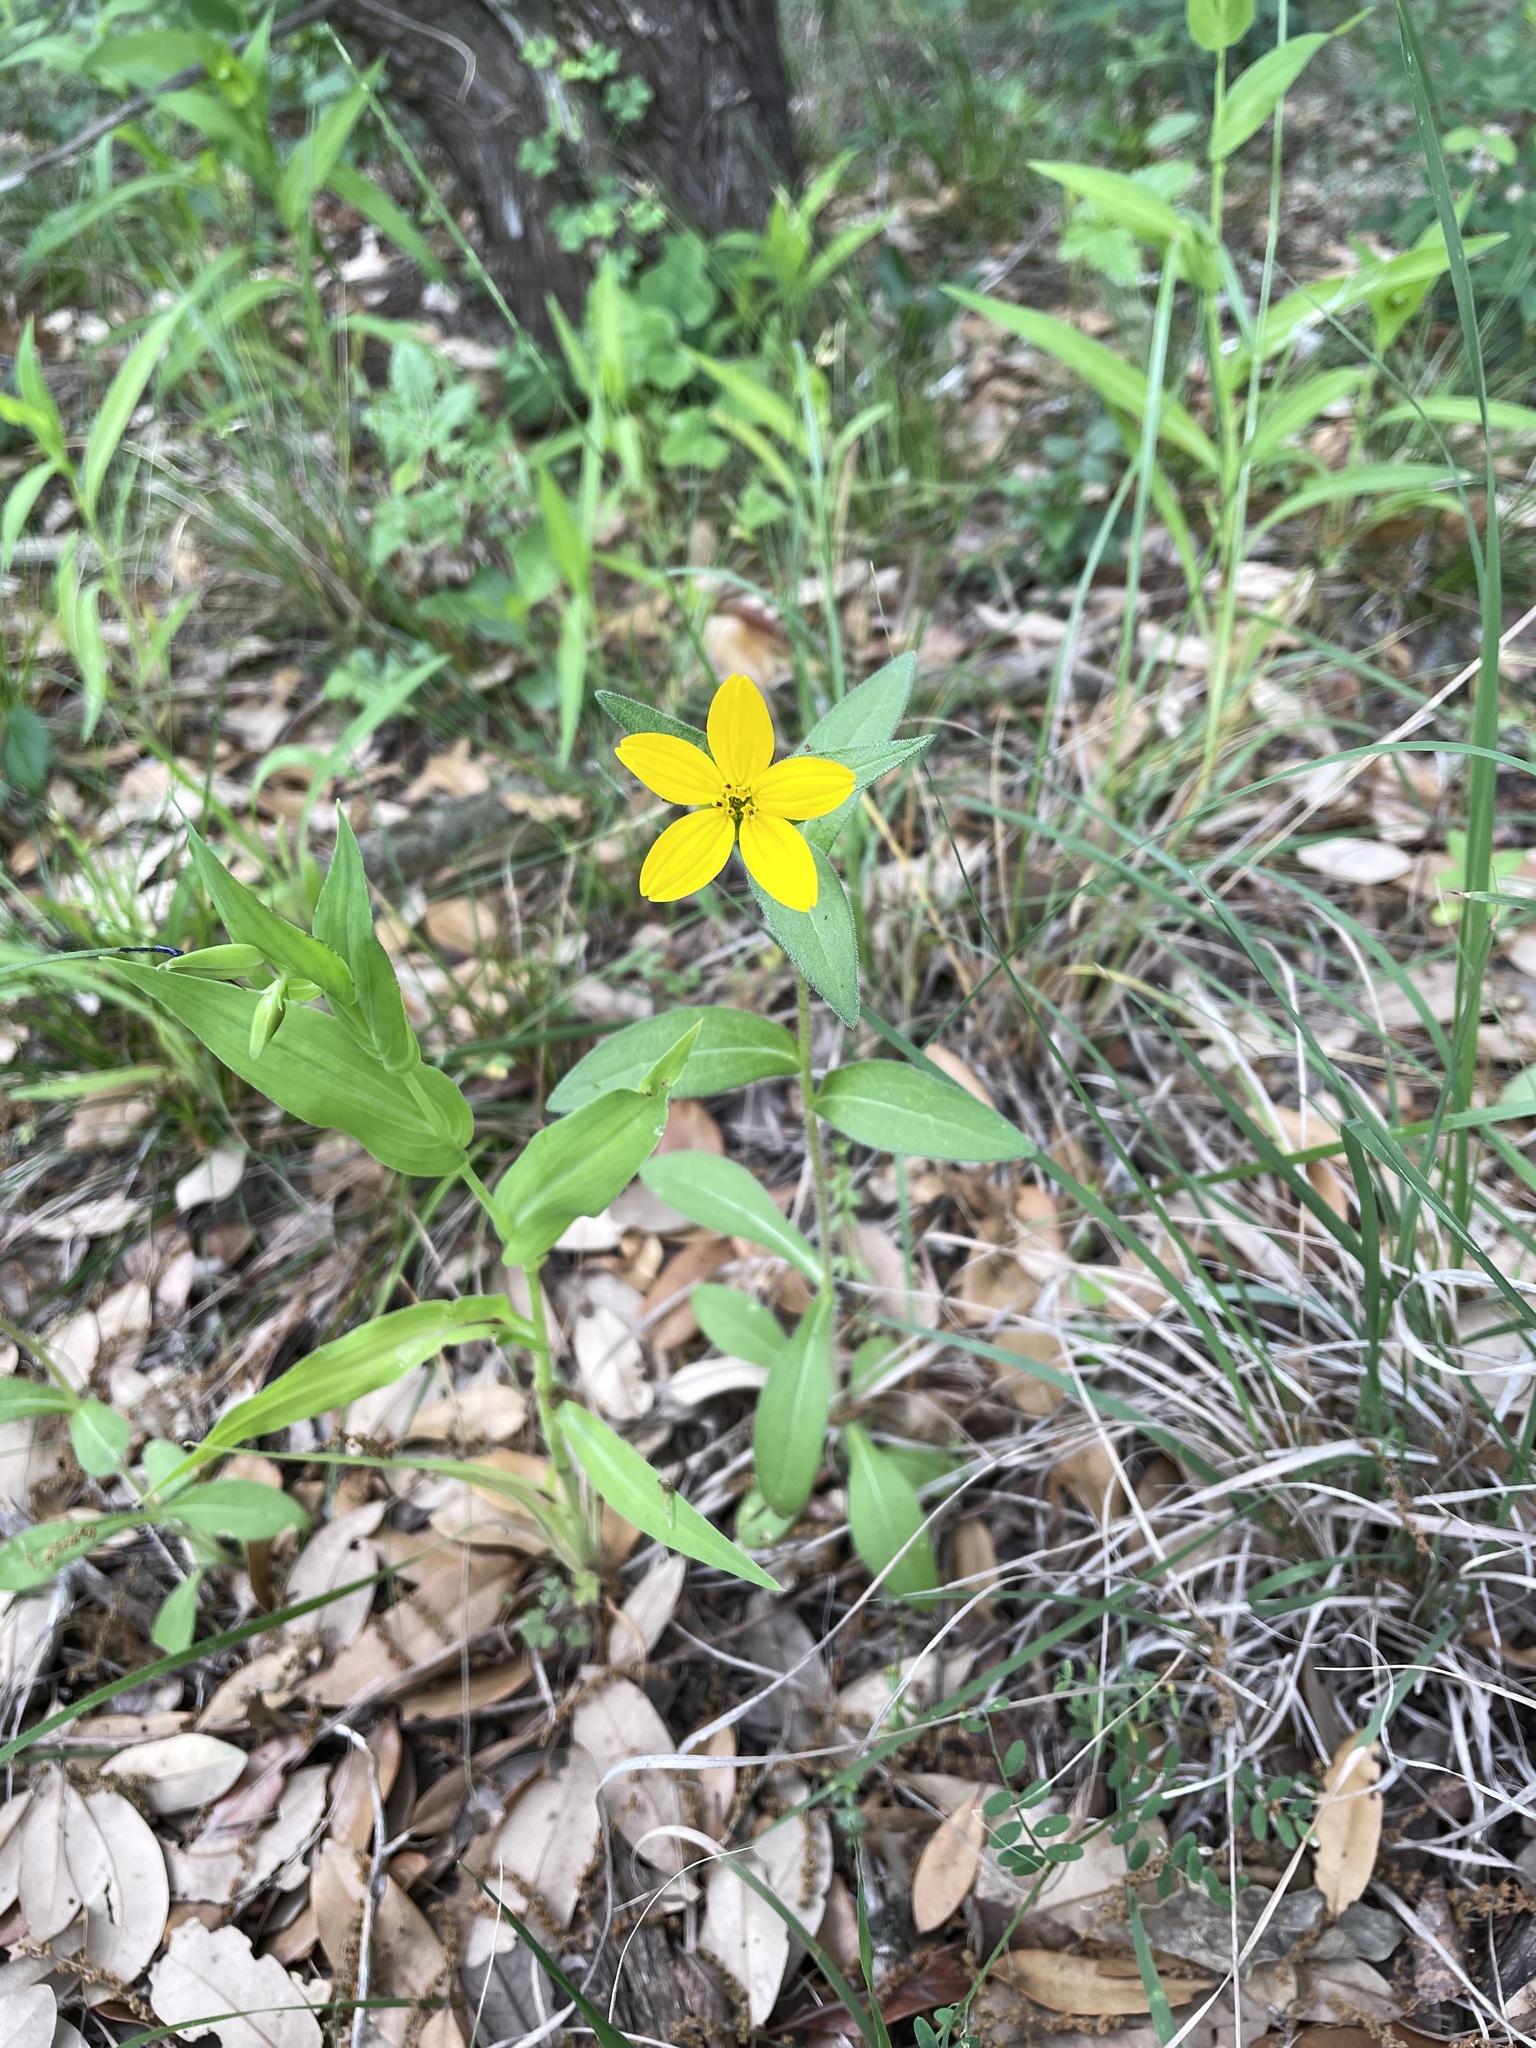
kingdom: Plantae
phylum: Tracheophyta
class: Magnoliopsida
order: Asterales
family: Asteraceae
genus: Lindheimera
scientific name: Lindheimera texana
